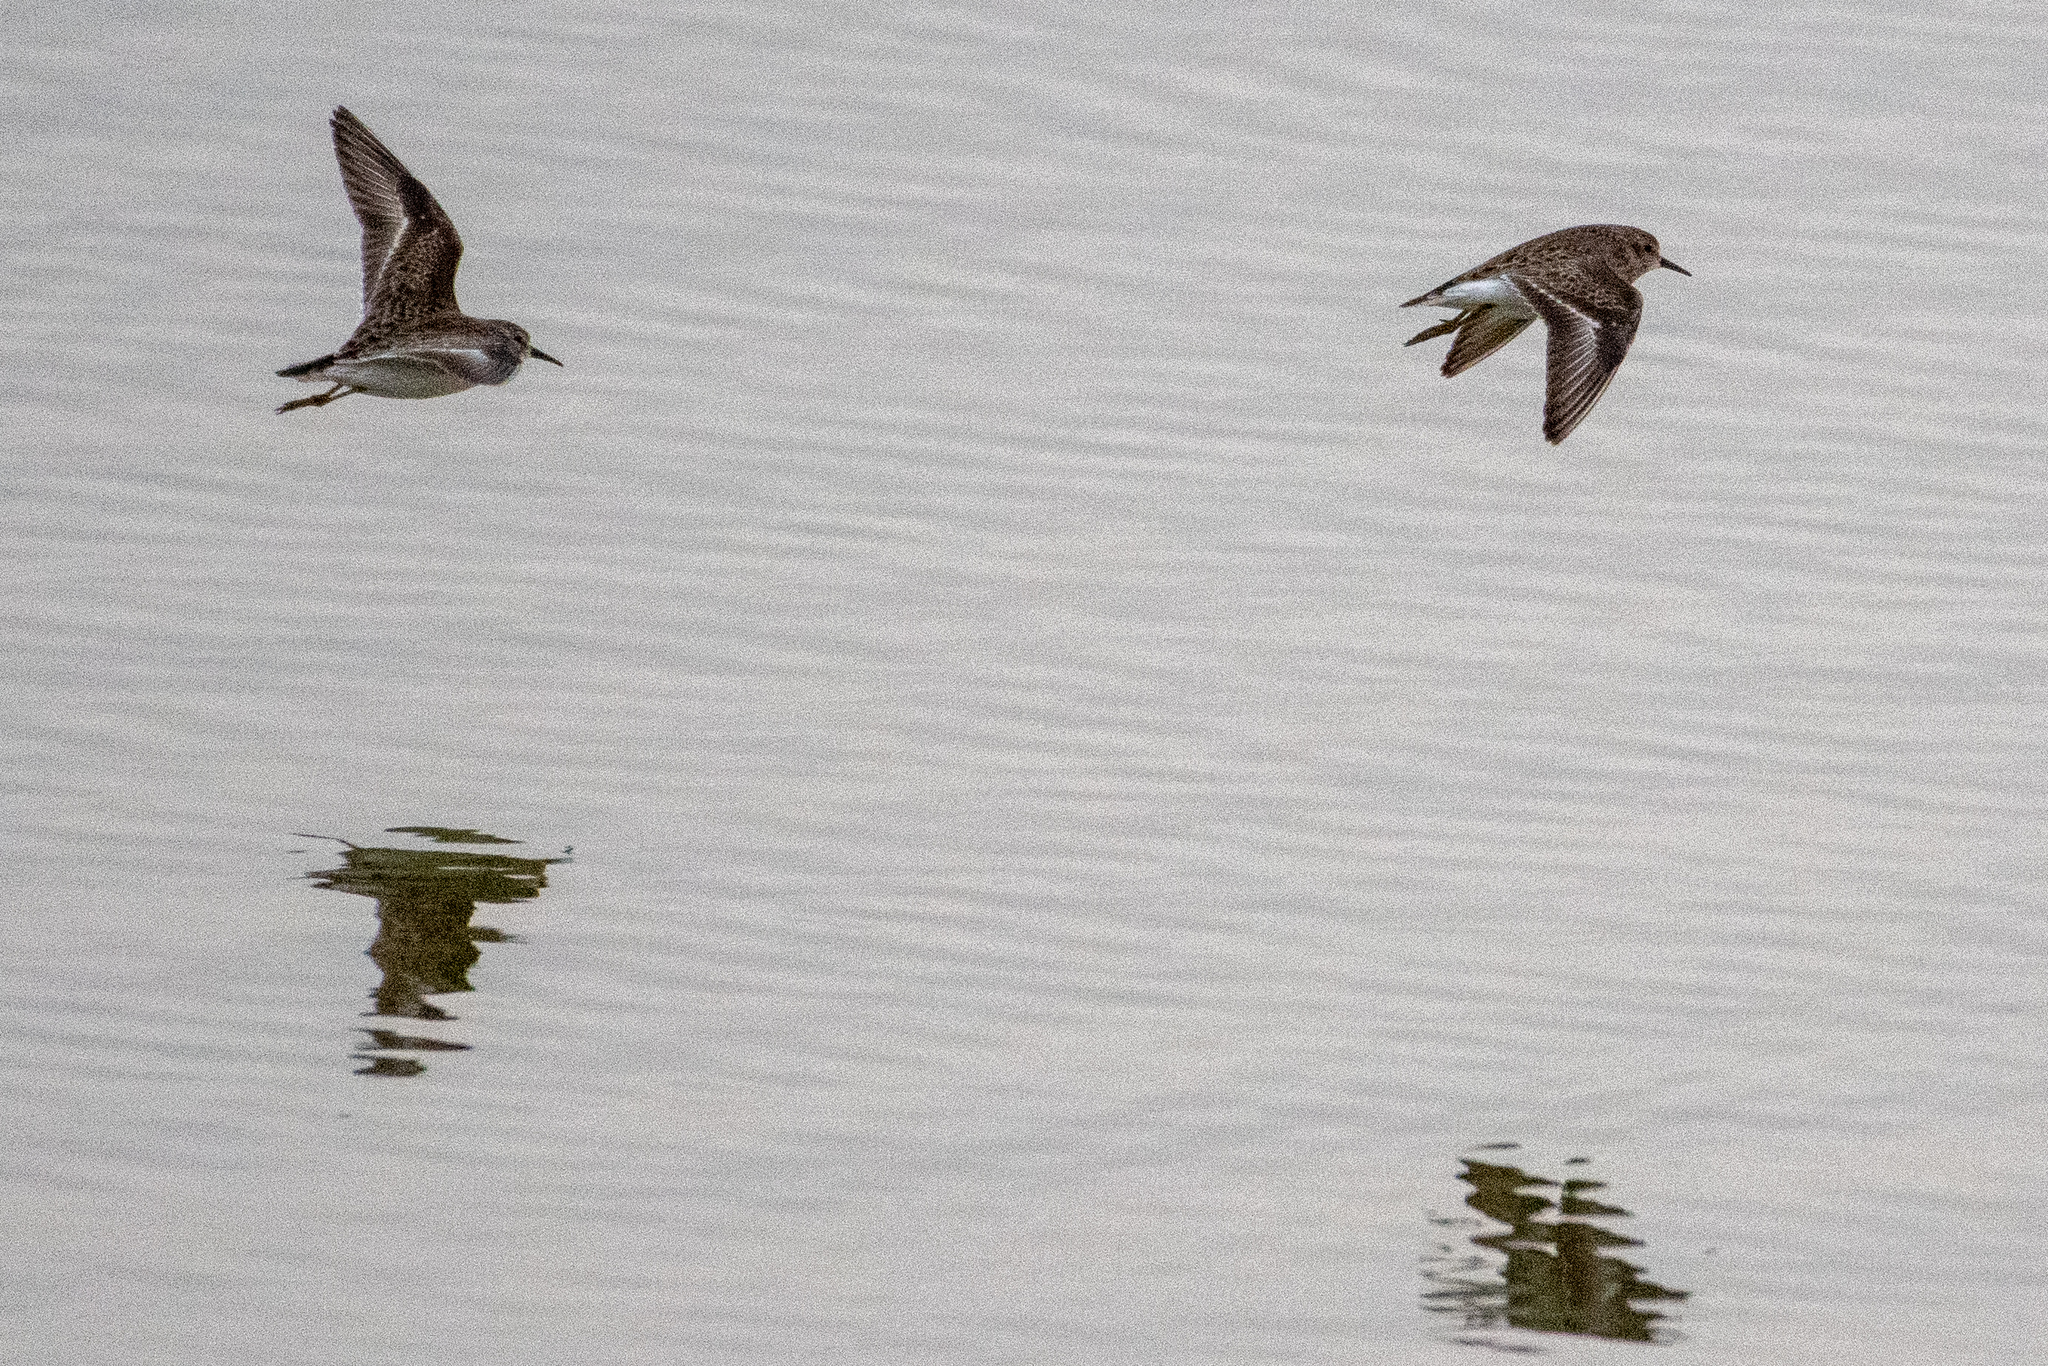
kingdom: Animalia
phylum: Chordata
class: Aves
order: Charadriiformes
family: Scolopacidae
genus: Calidris
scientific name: Calidris minutilla
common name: Least sandpiper
